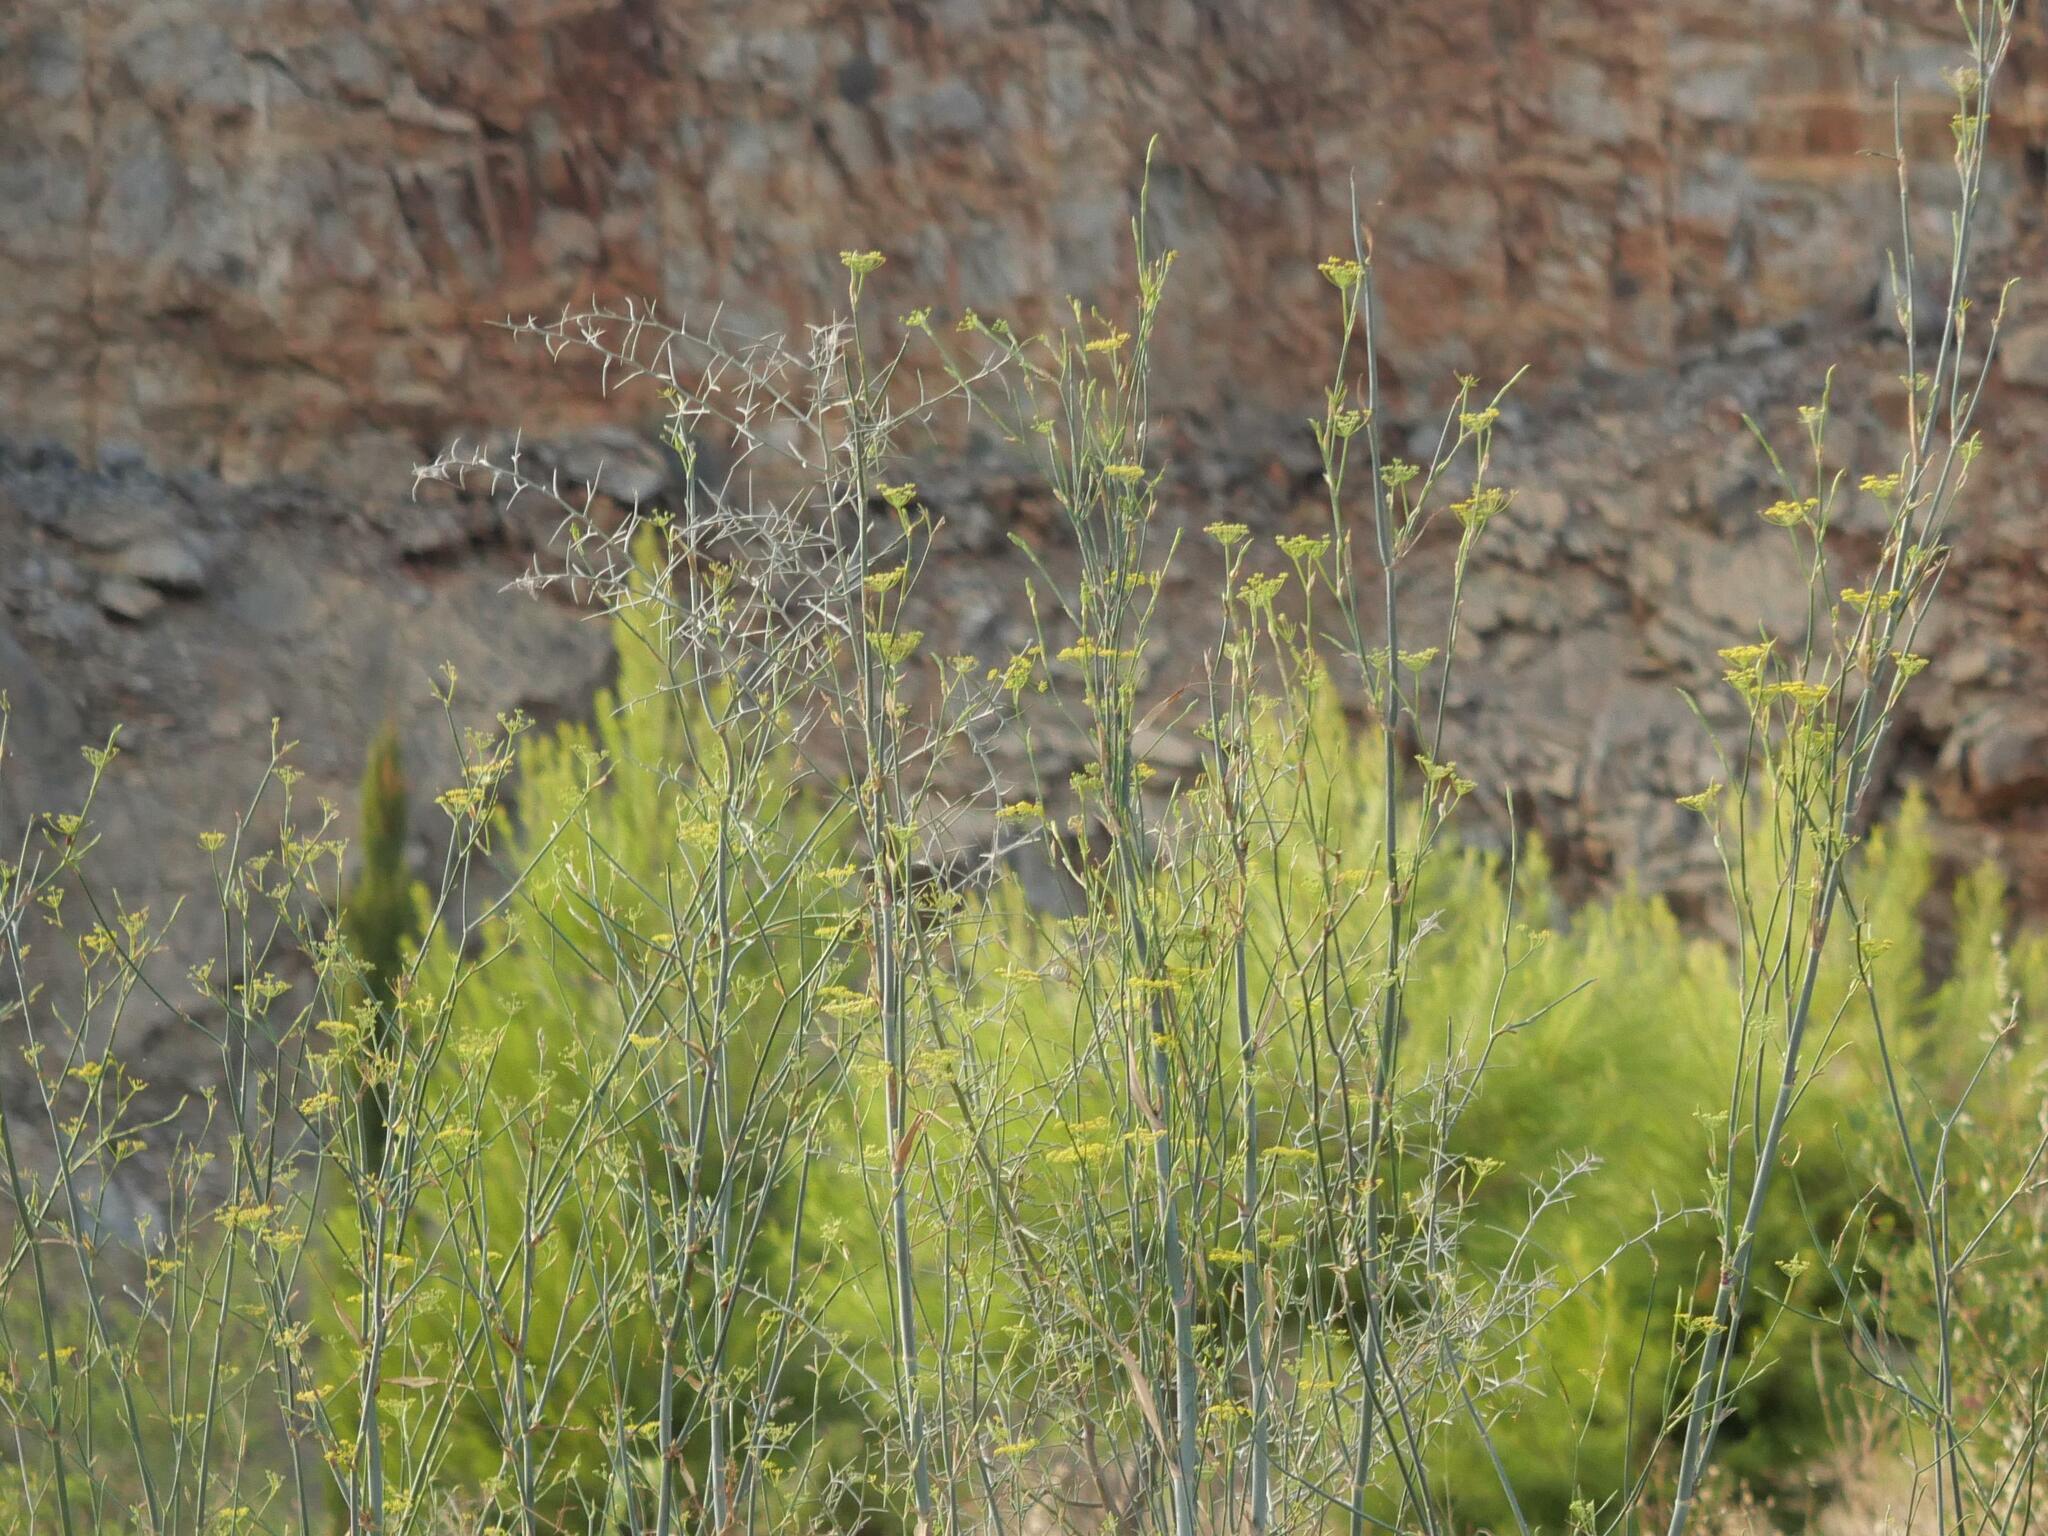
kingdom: Plantae
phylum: Tracheophyta
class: Magnoliopsida
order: Apiales
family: Apiaceae
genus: Foeniculum
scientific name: Foeniculum vulgare
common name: Fennel
